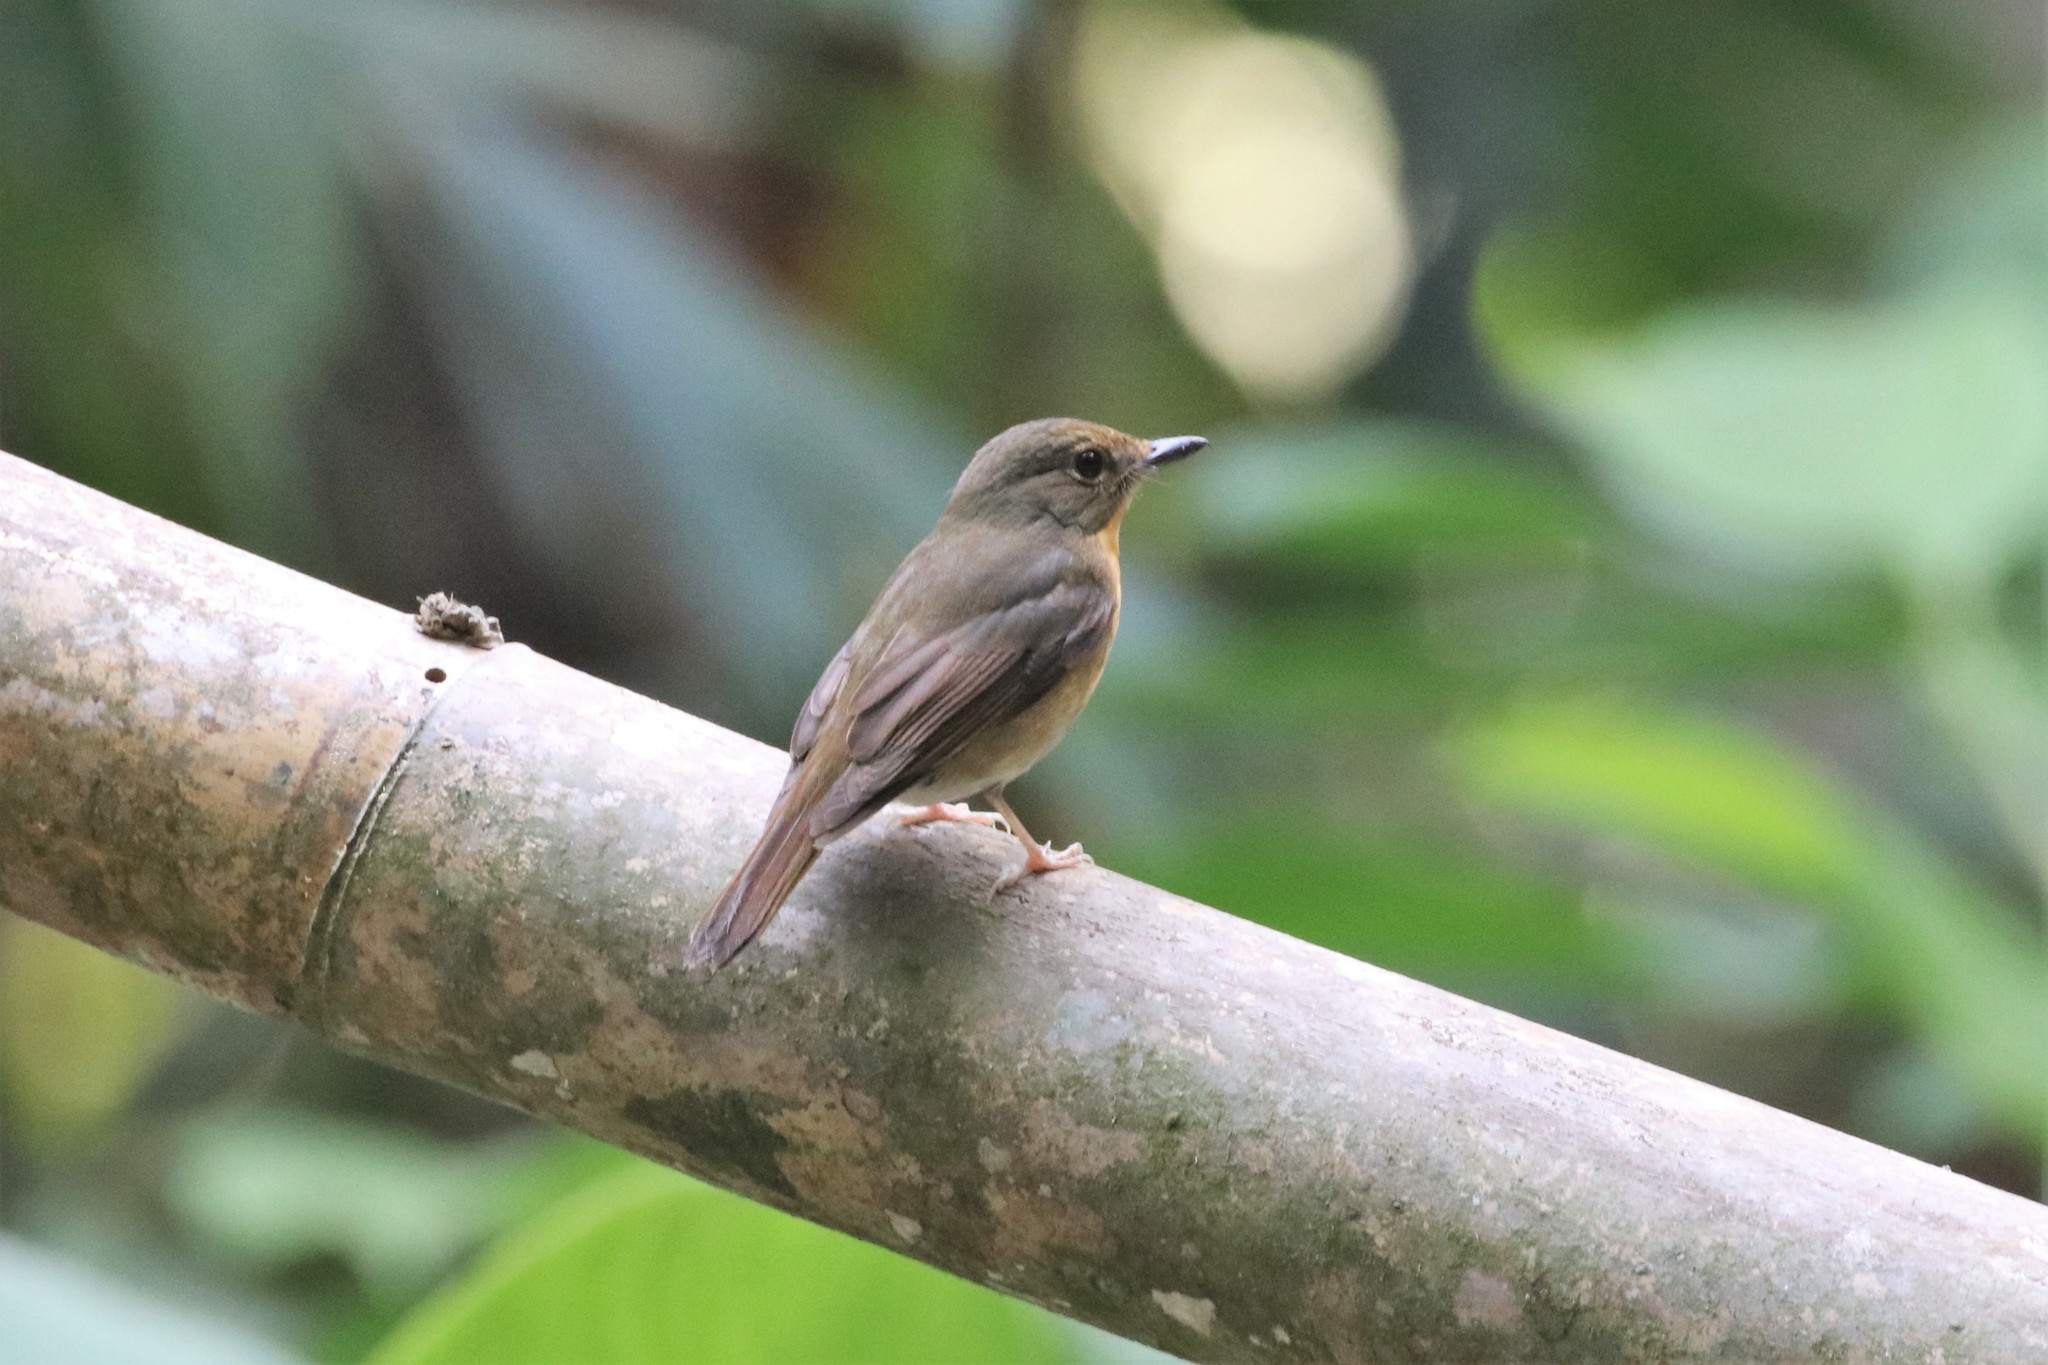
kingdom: Animalia
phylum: Chordata
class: Aves
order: Passeriformes
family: Muscicapidae
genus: Cyornis
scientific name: Cyornis magnirostris
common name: Large blue flycatcher
